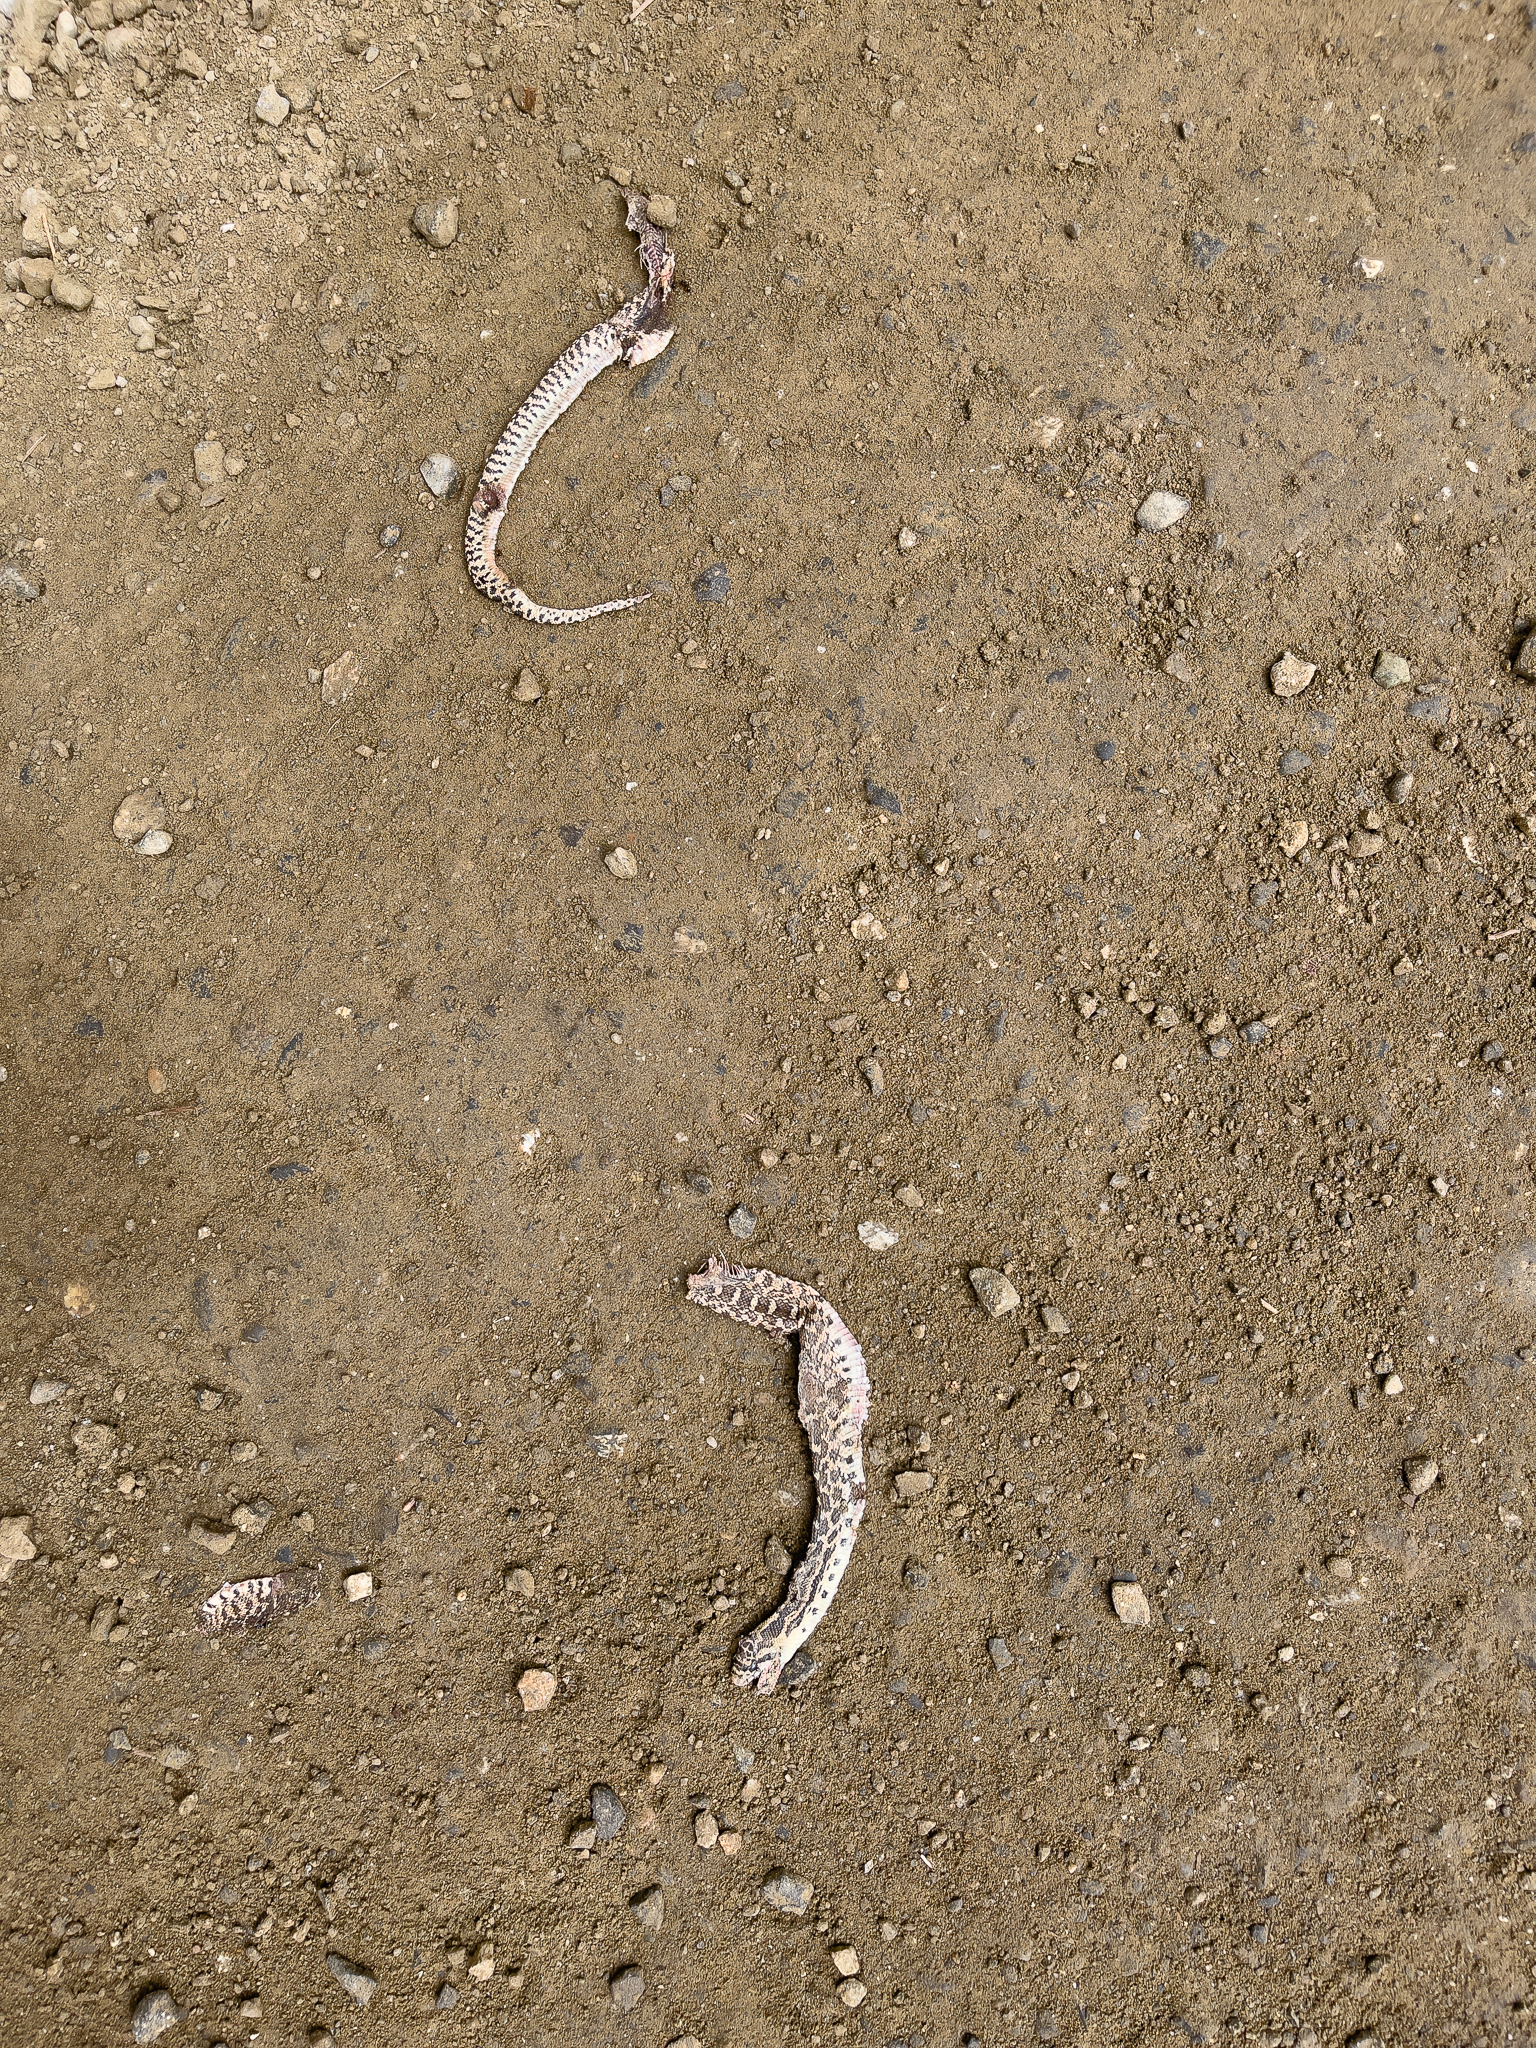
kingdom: Animalia
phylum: Chordata
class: Squamata
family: Colubridae
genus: Pituophis
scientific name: Pituophis catenifer
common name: Gopher snake
